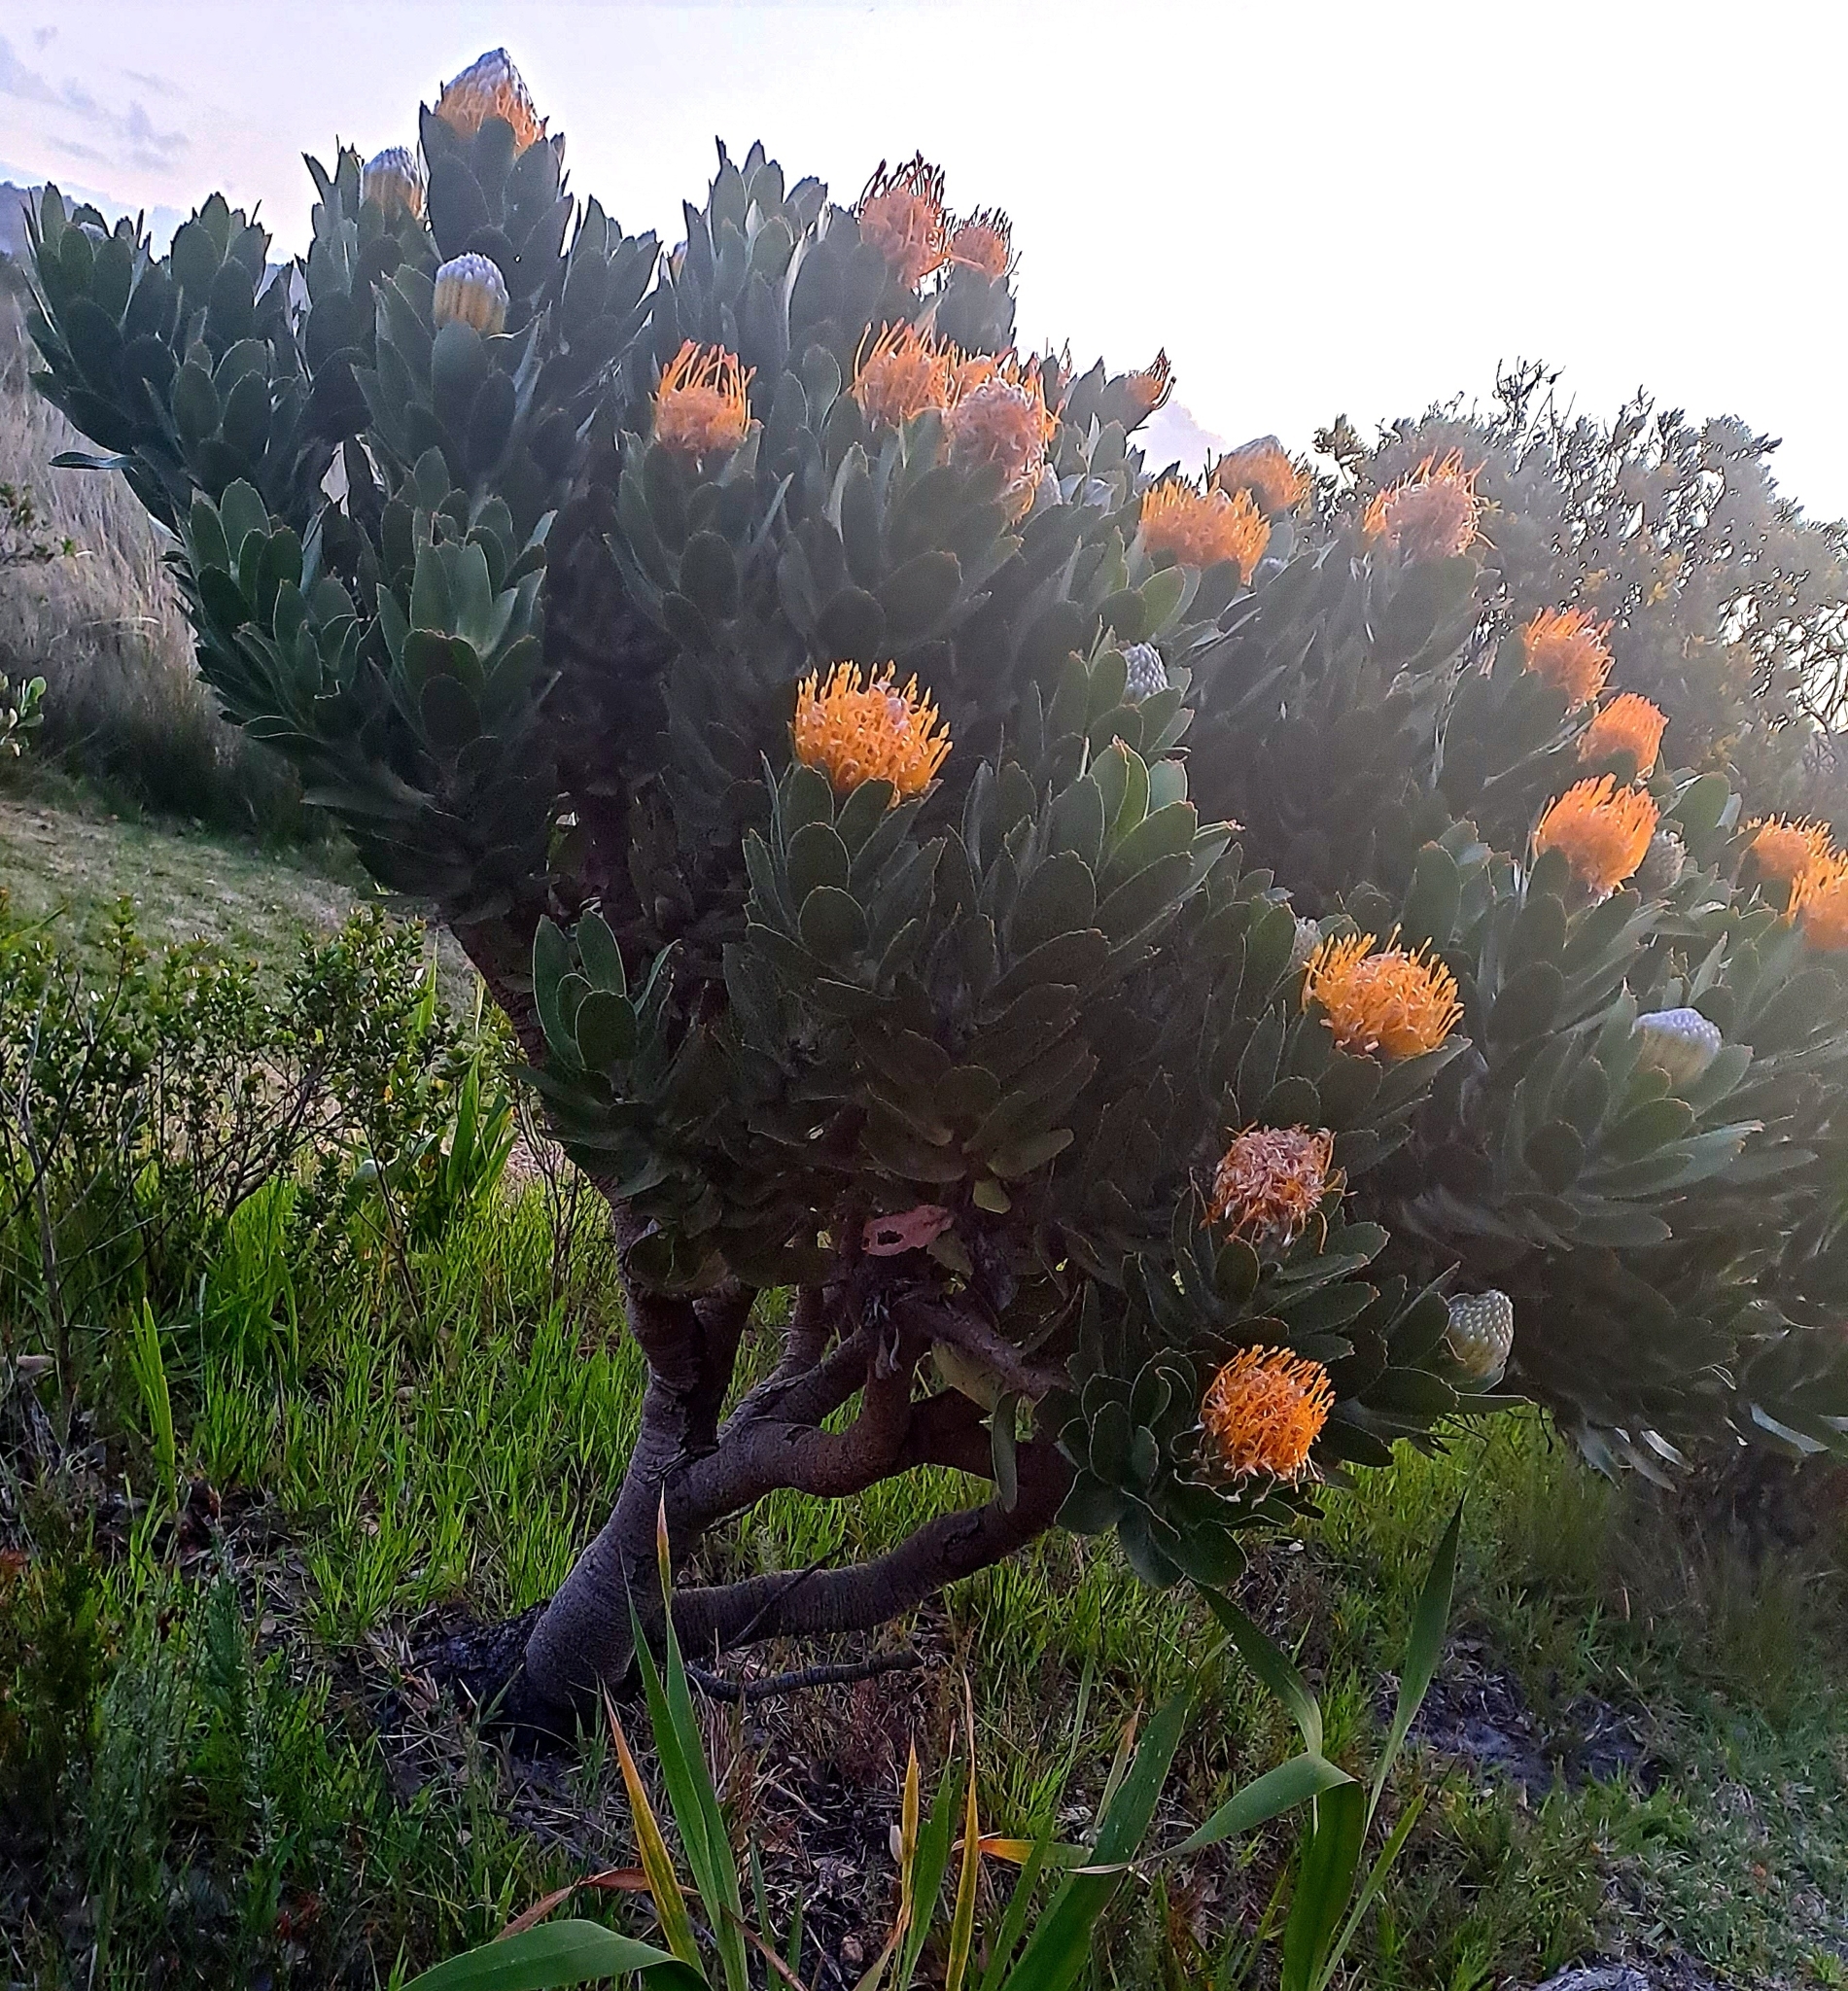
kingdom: Plantae
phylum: Tracheophyta
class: Magnoliopsida
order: Proteales
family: Proteaceae
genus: Leucospermum
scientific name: Leucospermum conocarpodendron
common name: Tree pincushion
